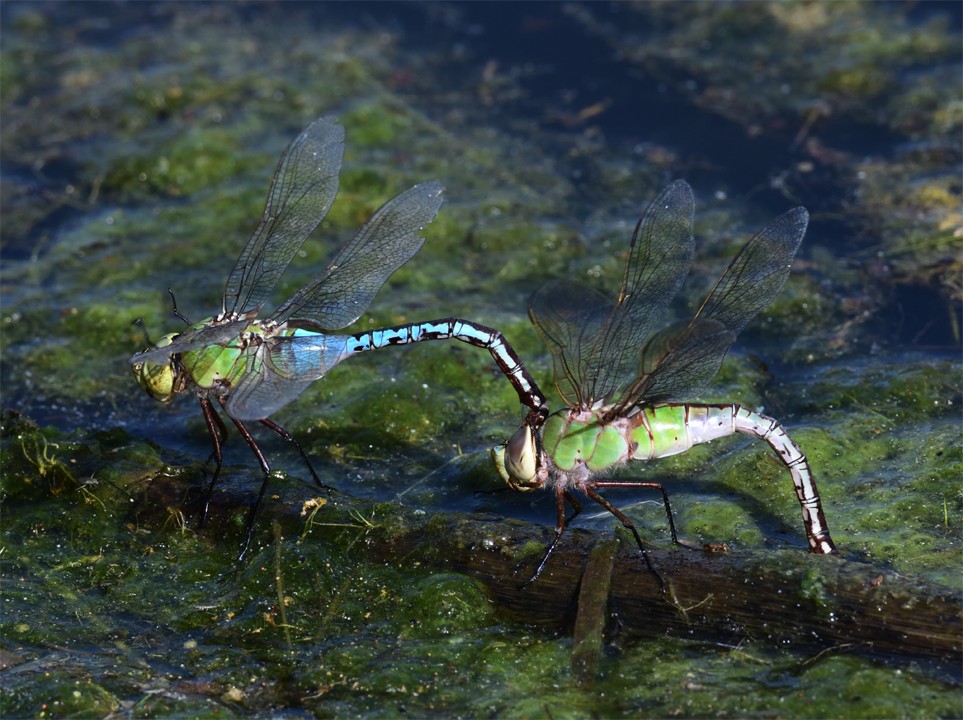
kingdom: Animalia
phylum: Arthropoda
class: Insecta
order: Odonata
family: Aeshnidae
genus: Anax
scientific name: Anax junius
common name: Common green darner
